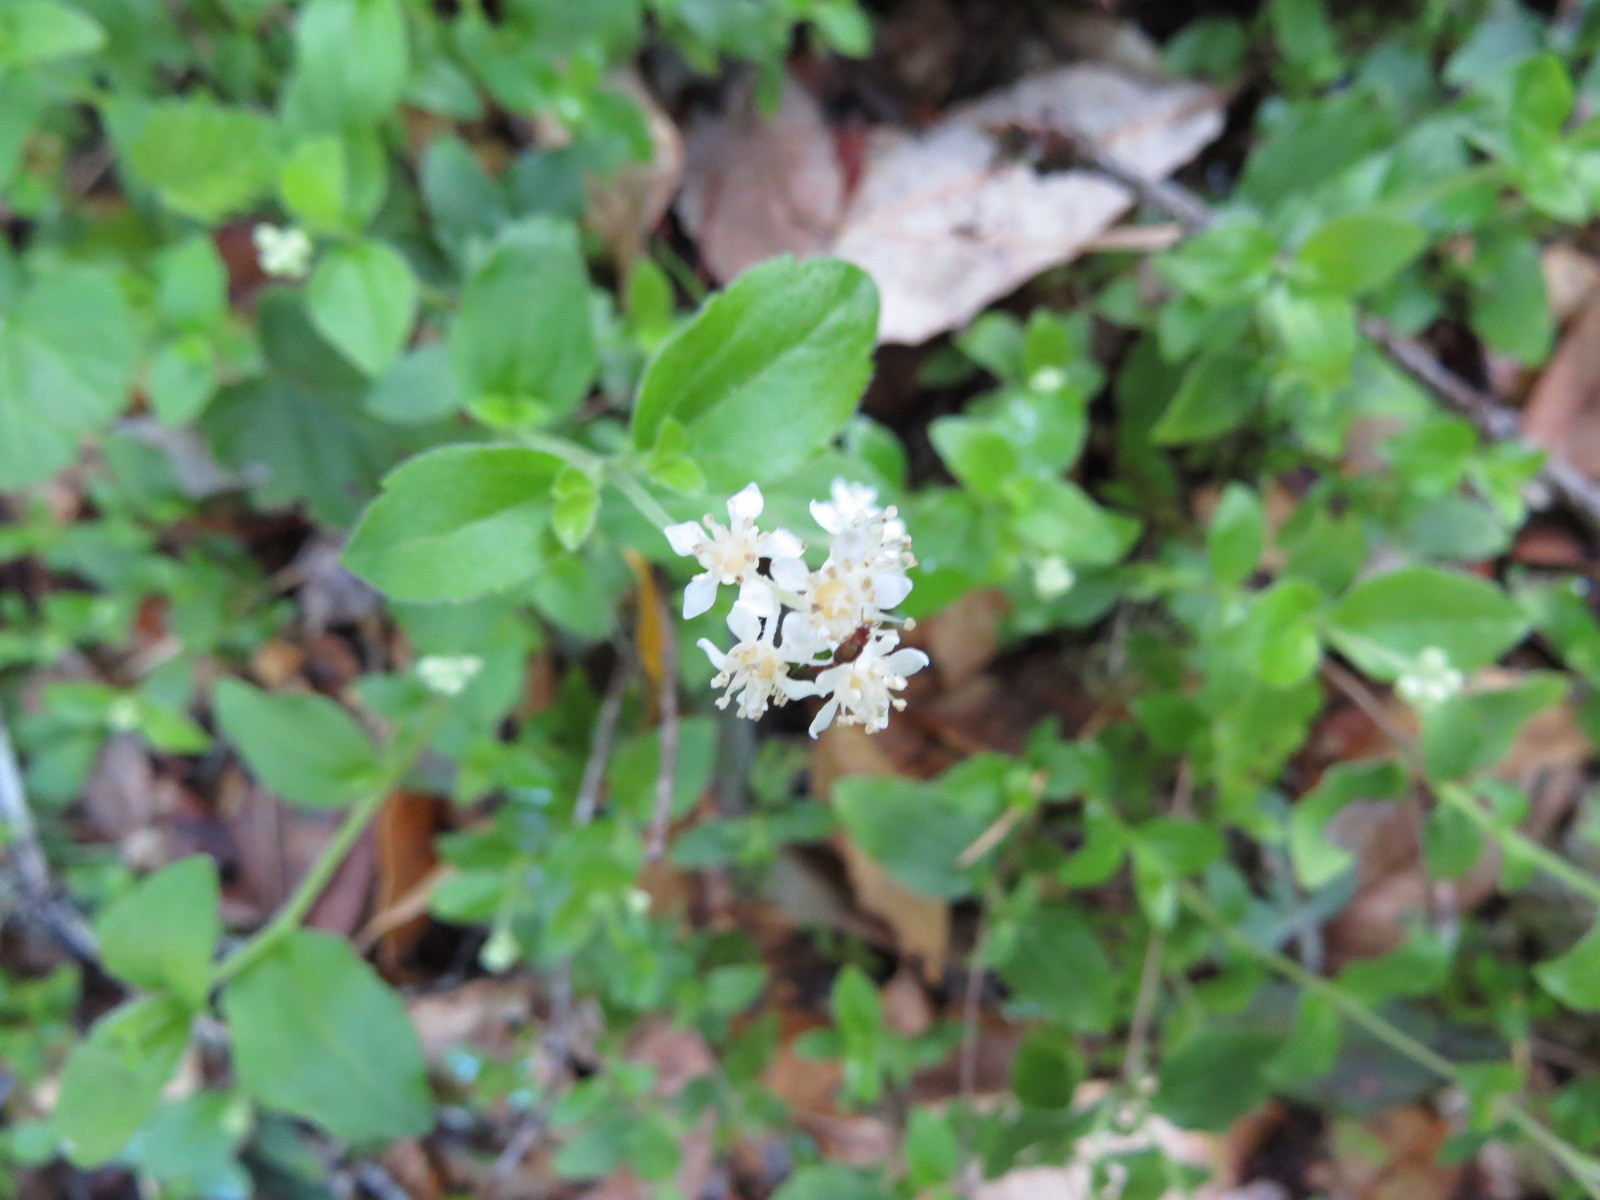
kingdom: Plantae
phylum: Tracheophyta
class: Magnoliopsida
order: Cornales
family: Hydrangeaceae
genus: Whipplea
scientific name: Whipplea modesta
